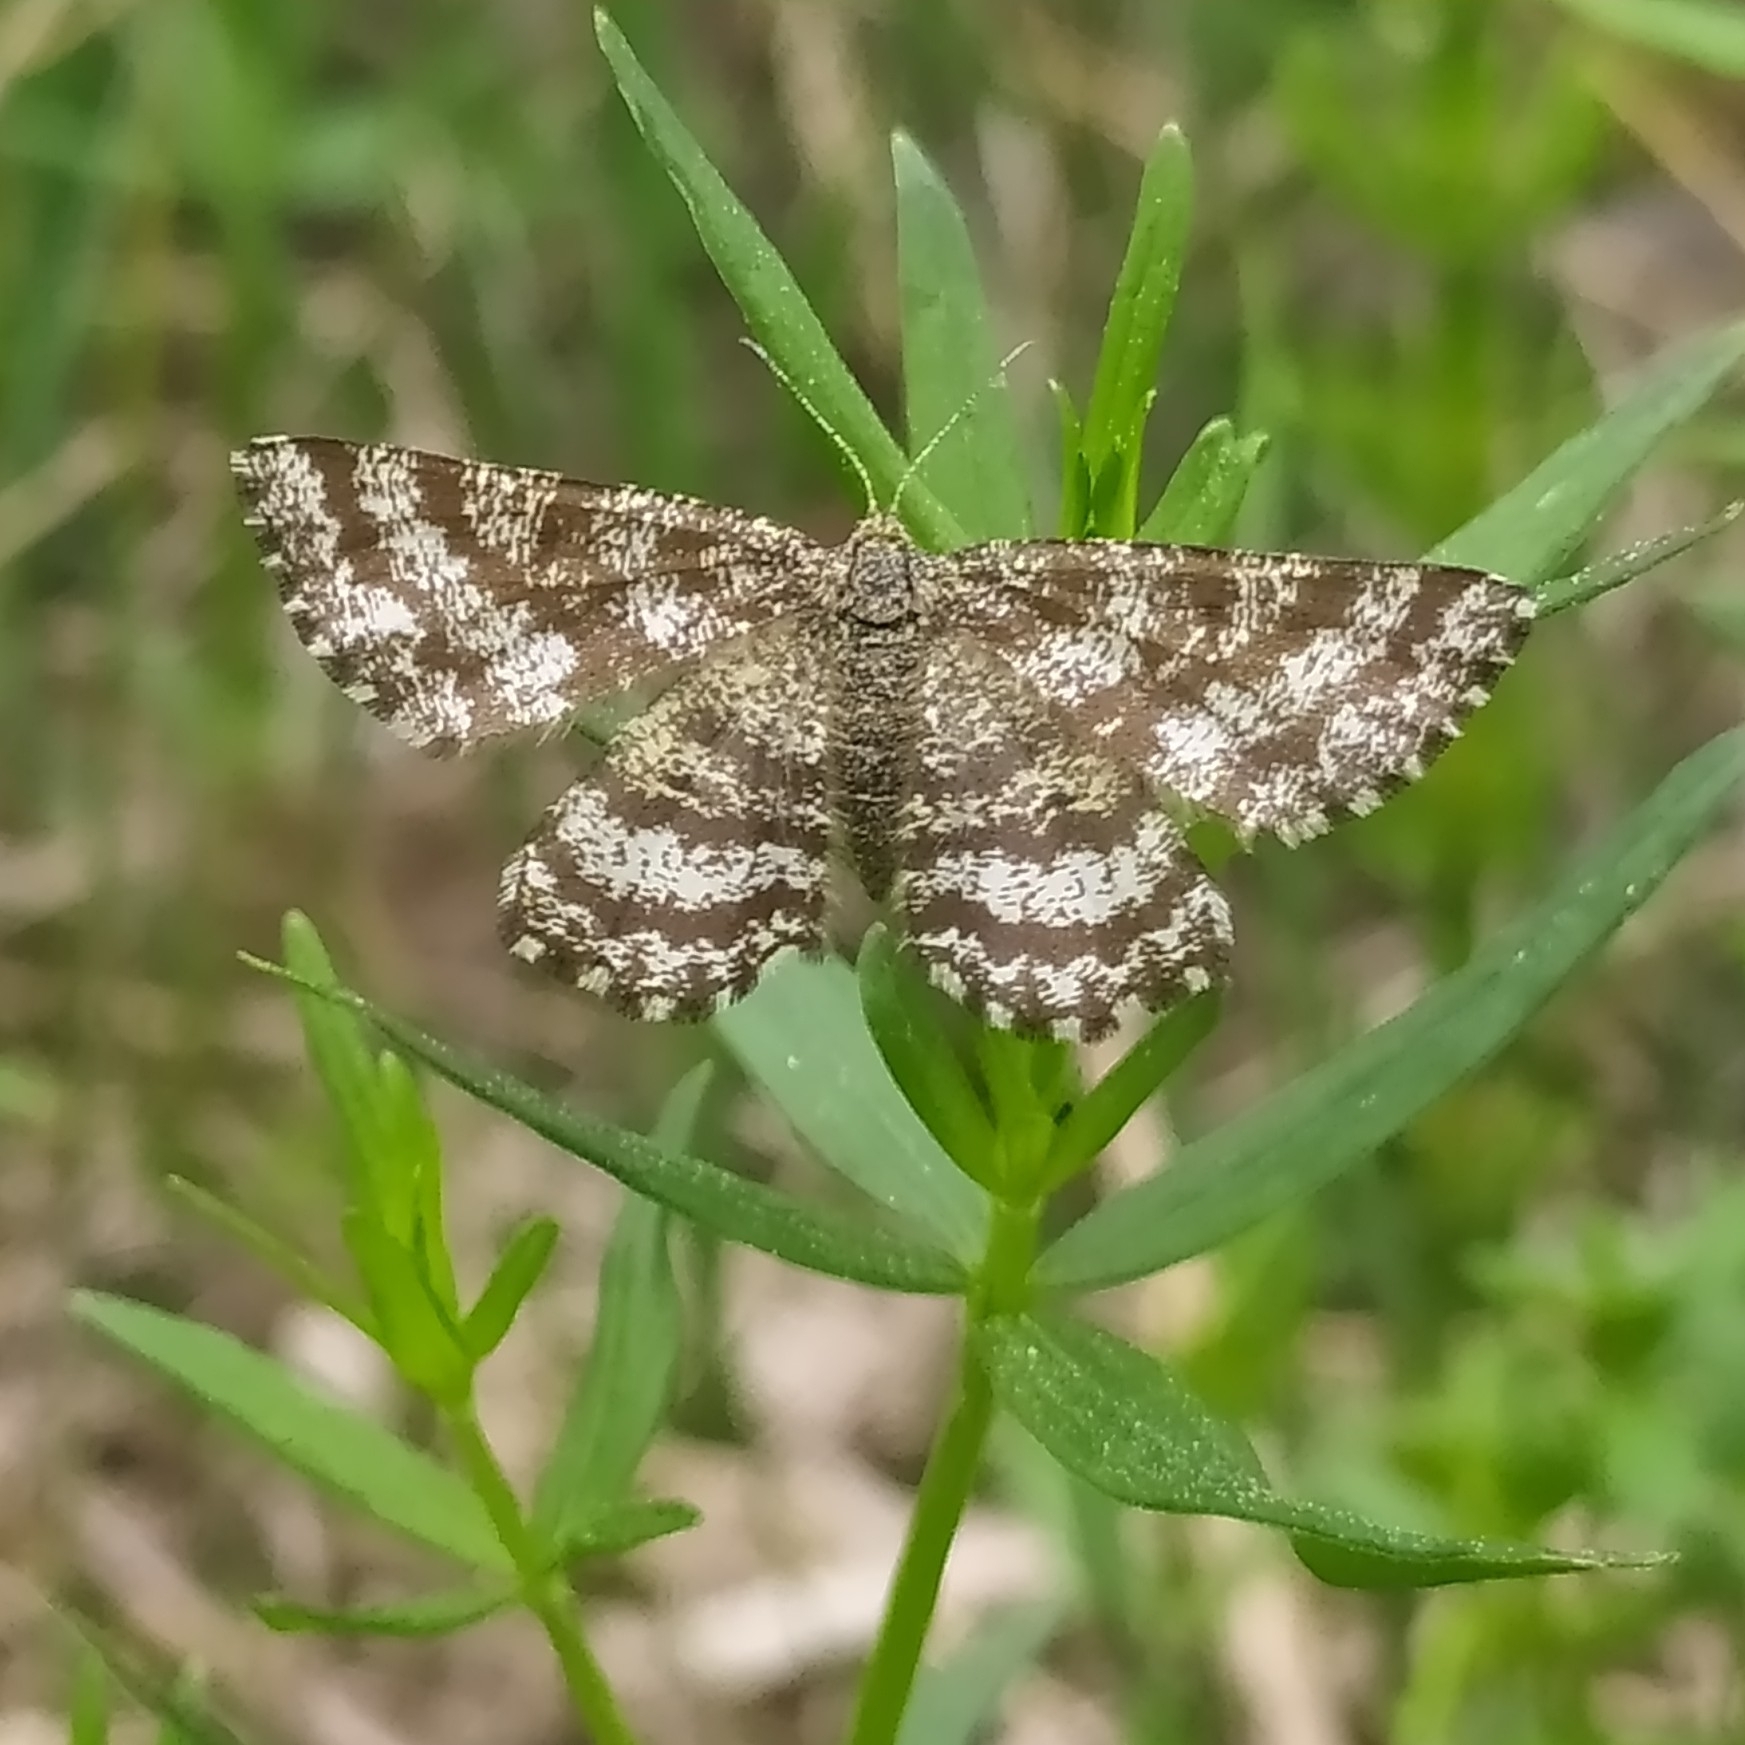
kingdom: Animalia
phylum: Arthropoda
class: Insecta
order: Lepidoptera
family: Geometridae
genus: Ematurga
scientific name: Ematurga atomaria
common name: Common heath
